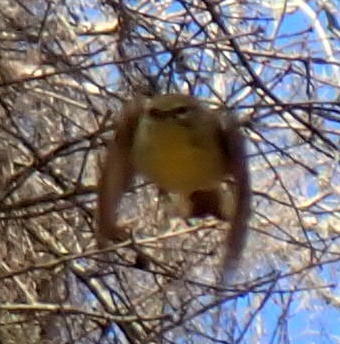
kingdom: Animalia
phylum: Chordata
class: Aves
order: Passeriformes
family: Parulidae
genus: Setophaga
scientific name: Setophaga pinus
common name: Pine warbler
